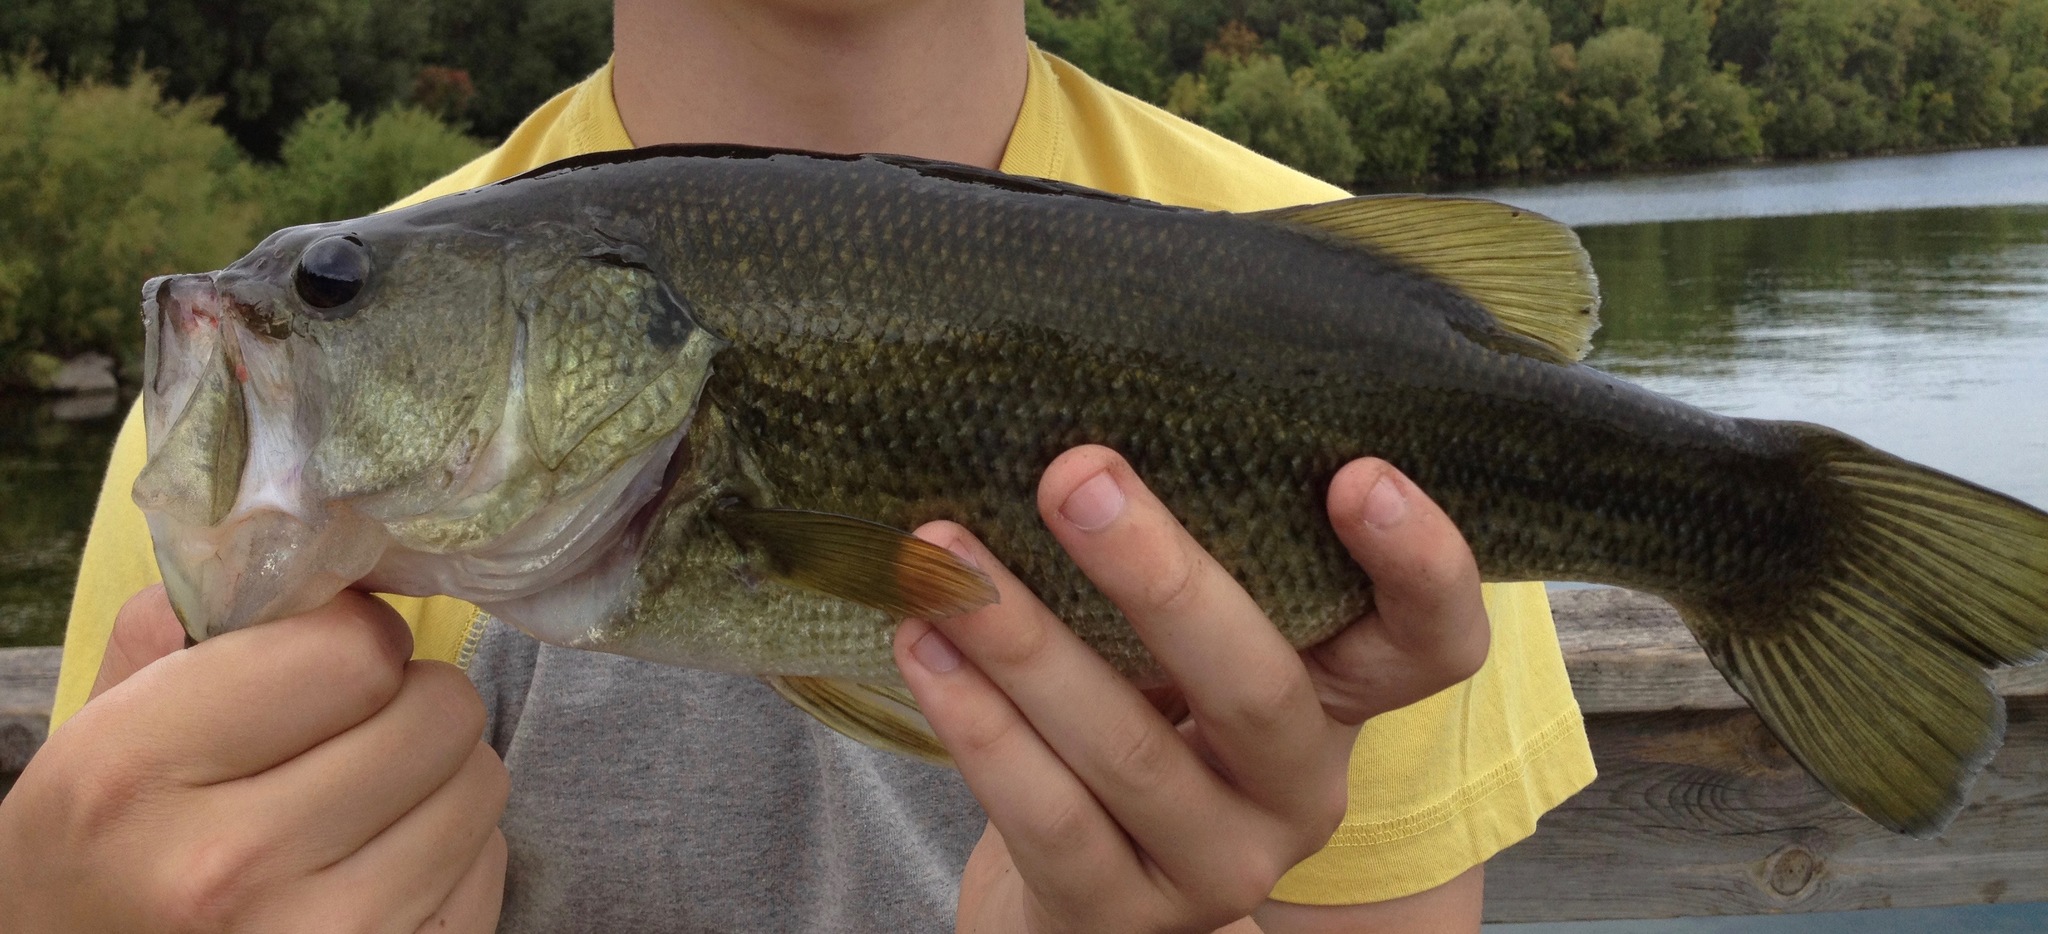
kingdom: Animalia
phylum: Chordata
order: Perciformes
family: Centrarchidae
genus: Micropterus
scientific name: Micropterus
